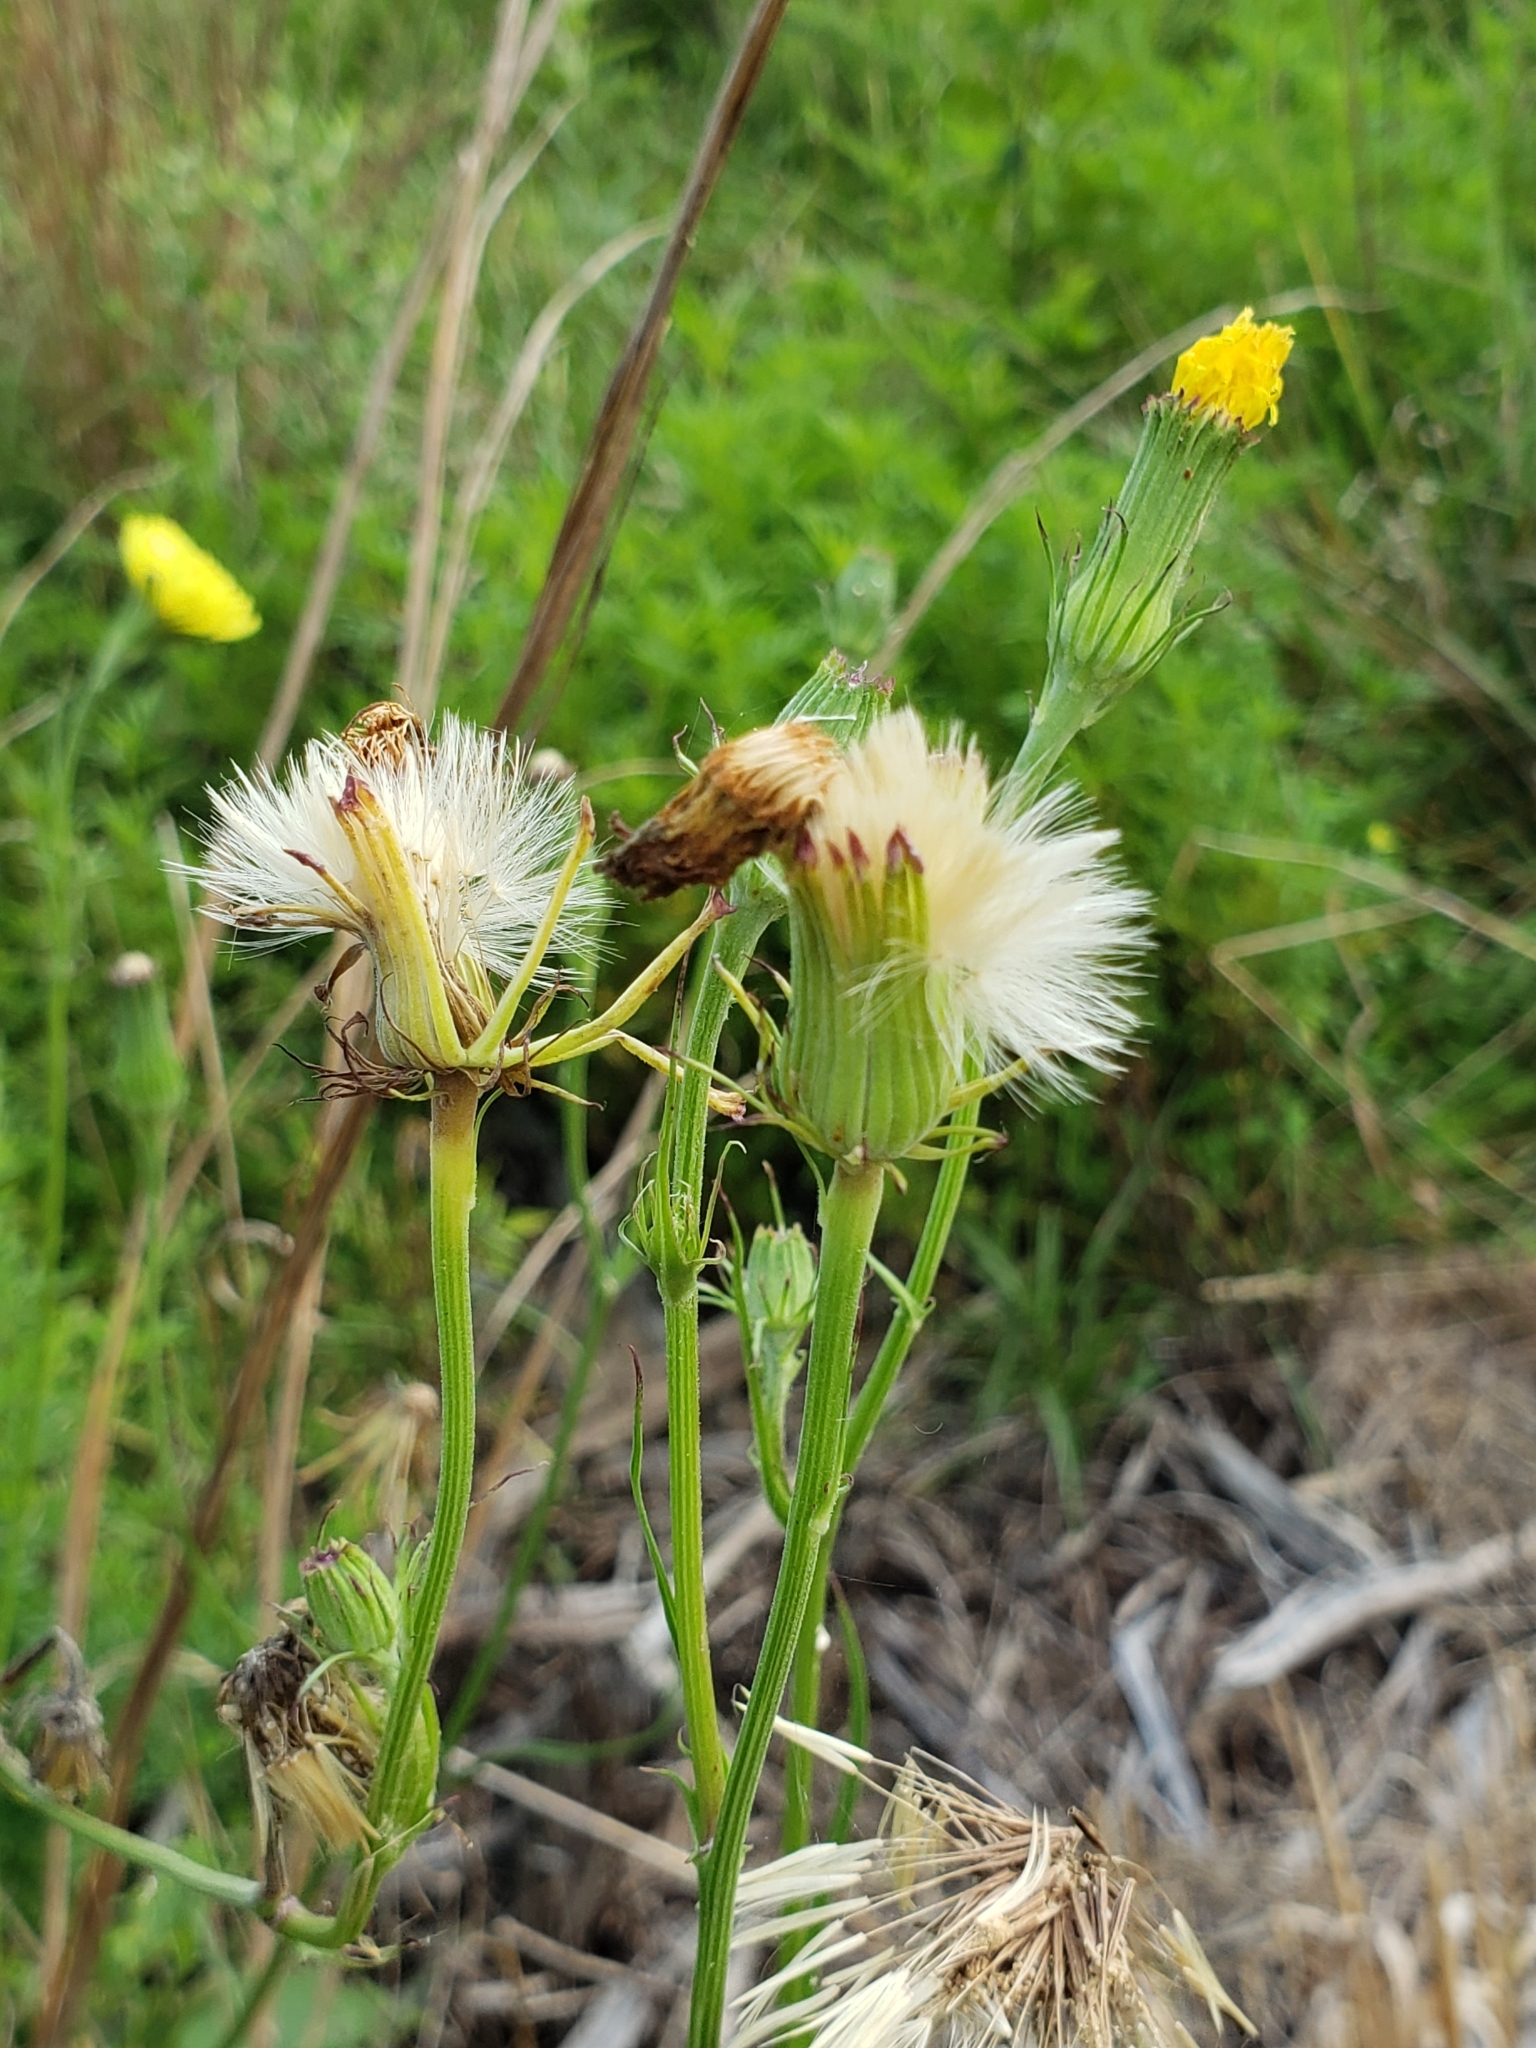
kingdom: Plantae
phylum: Tracheophyta
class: Magnoliopsida
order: Asterales
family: Asteraceae
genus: Pyrrhopappus
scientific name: Pyrrhopappus carolinianus
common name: Carolina desert-chicory
